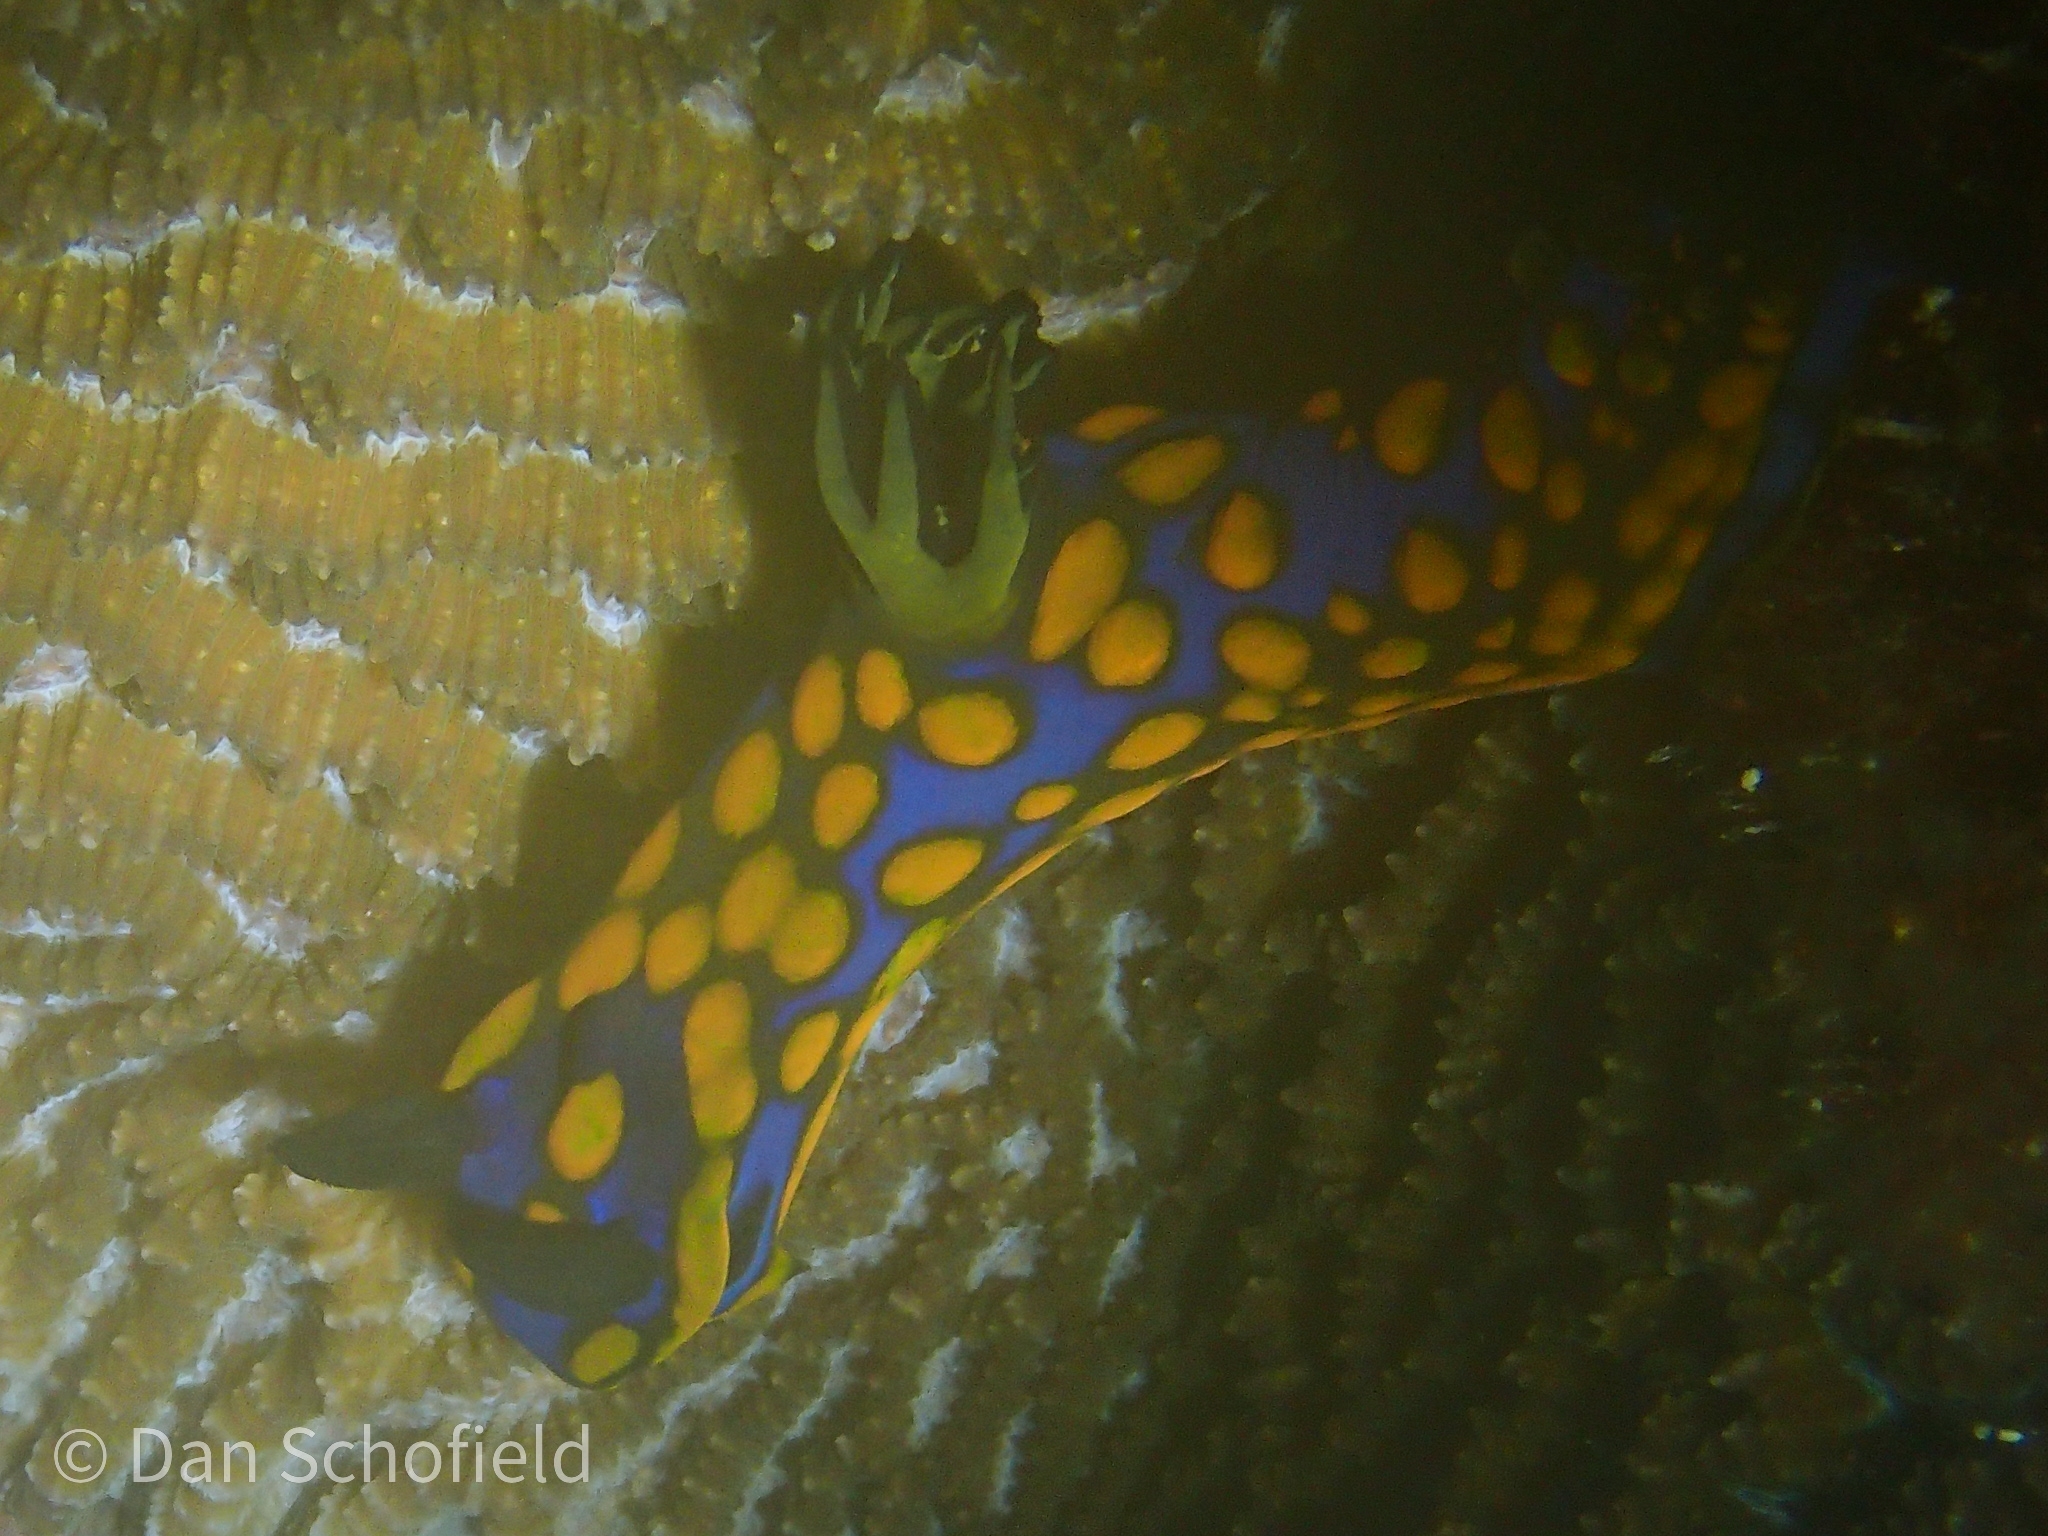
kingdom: Animalia
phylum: Mollusca
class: Gastropoda
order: Nudibranchia
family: Polyceridae
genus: Tambja
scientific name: Tambja sagamiana
